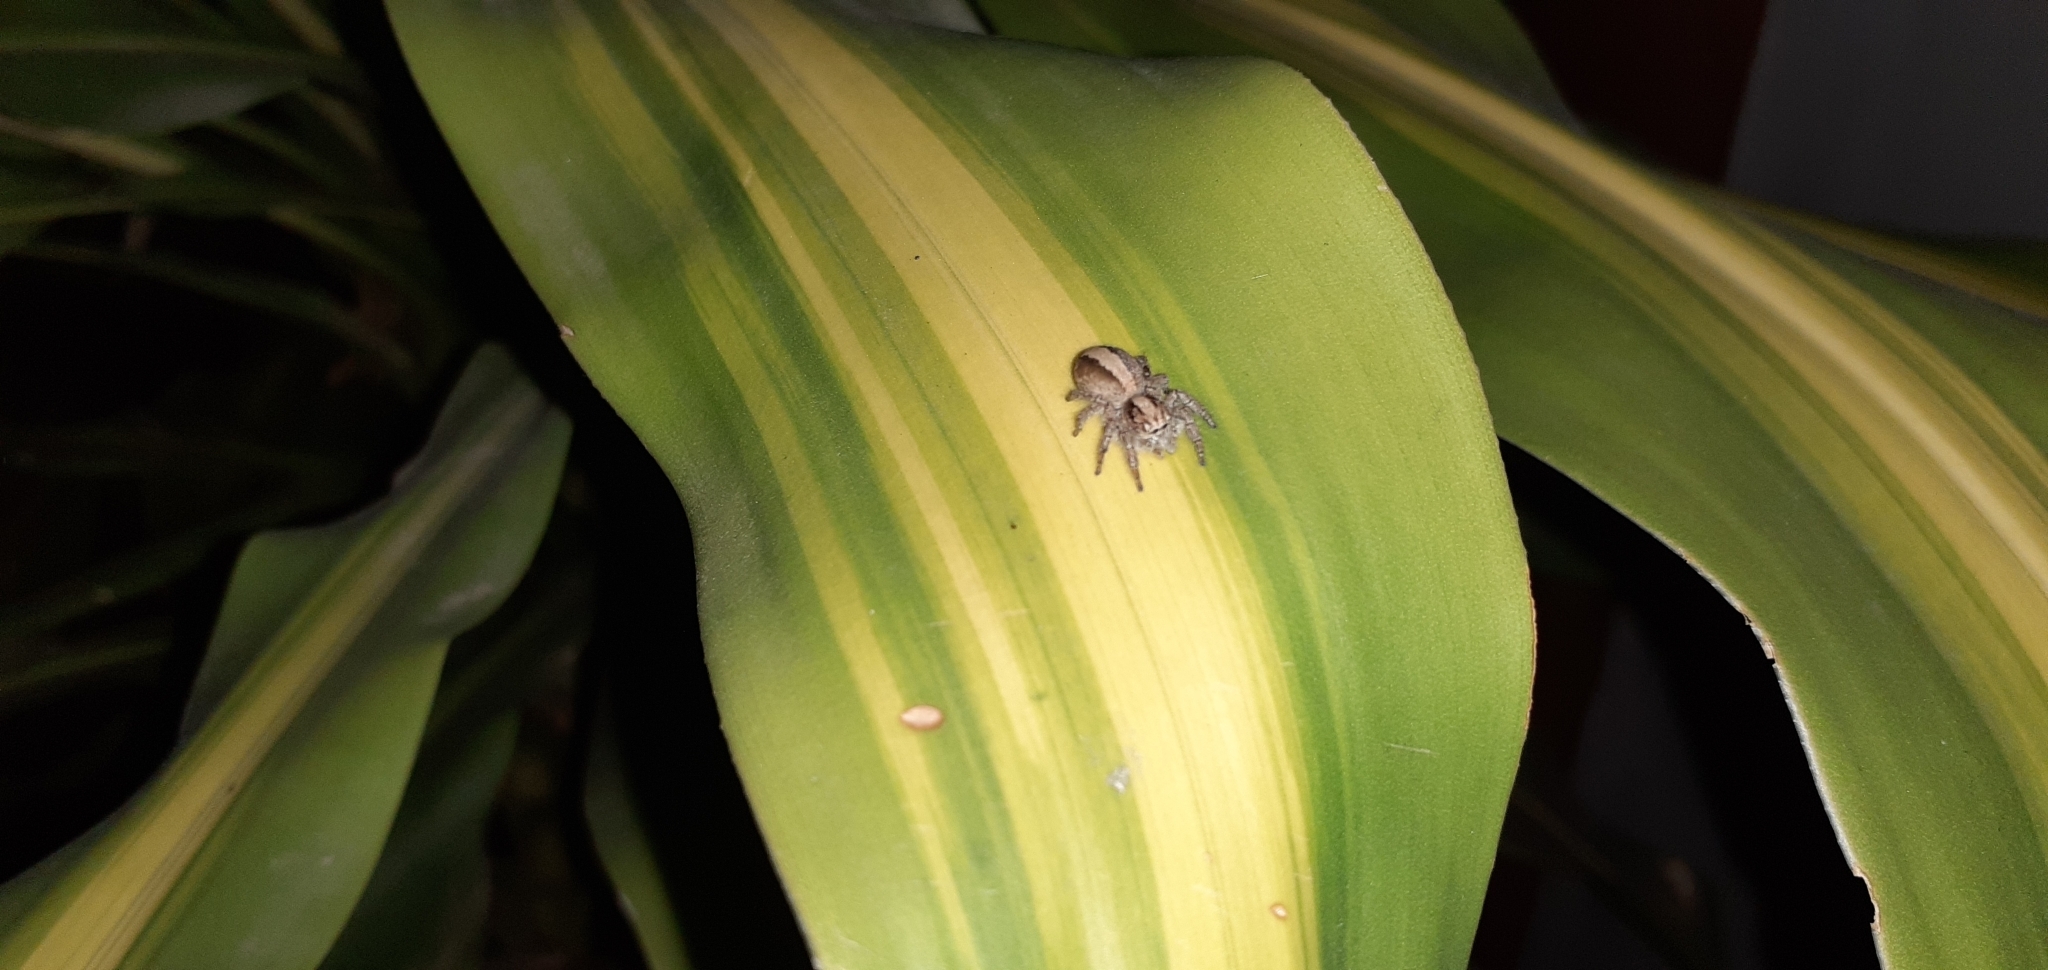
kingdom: Animalia
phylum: Arthropoda
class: Arachnida
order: Araneae
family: Salticidae
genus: Megafreya
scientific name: Megafreya sutrix
